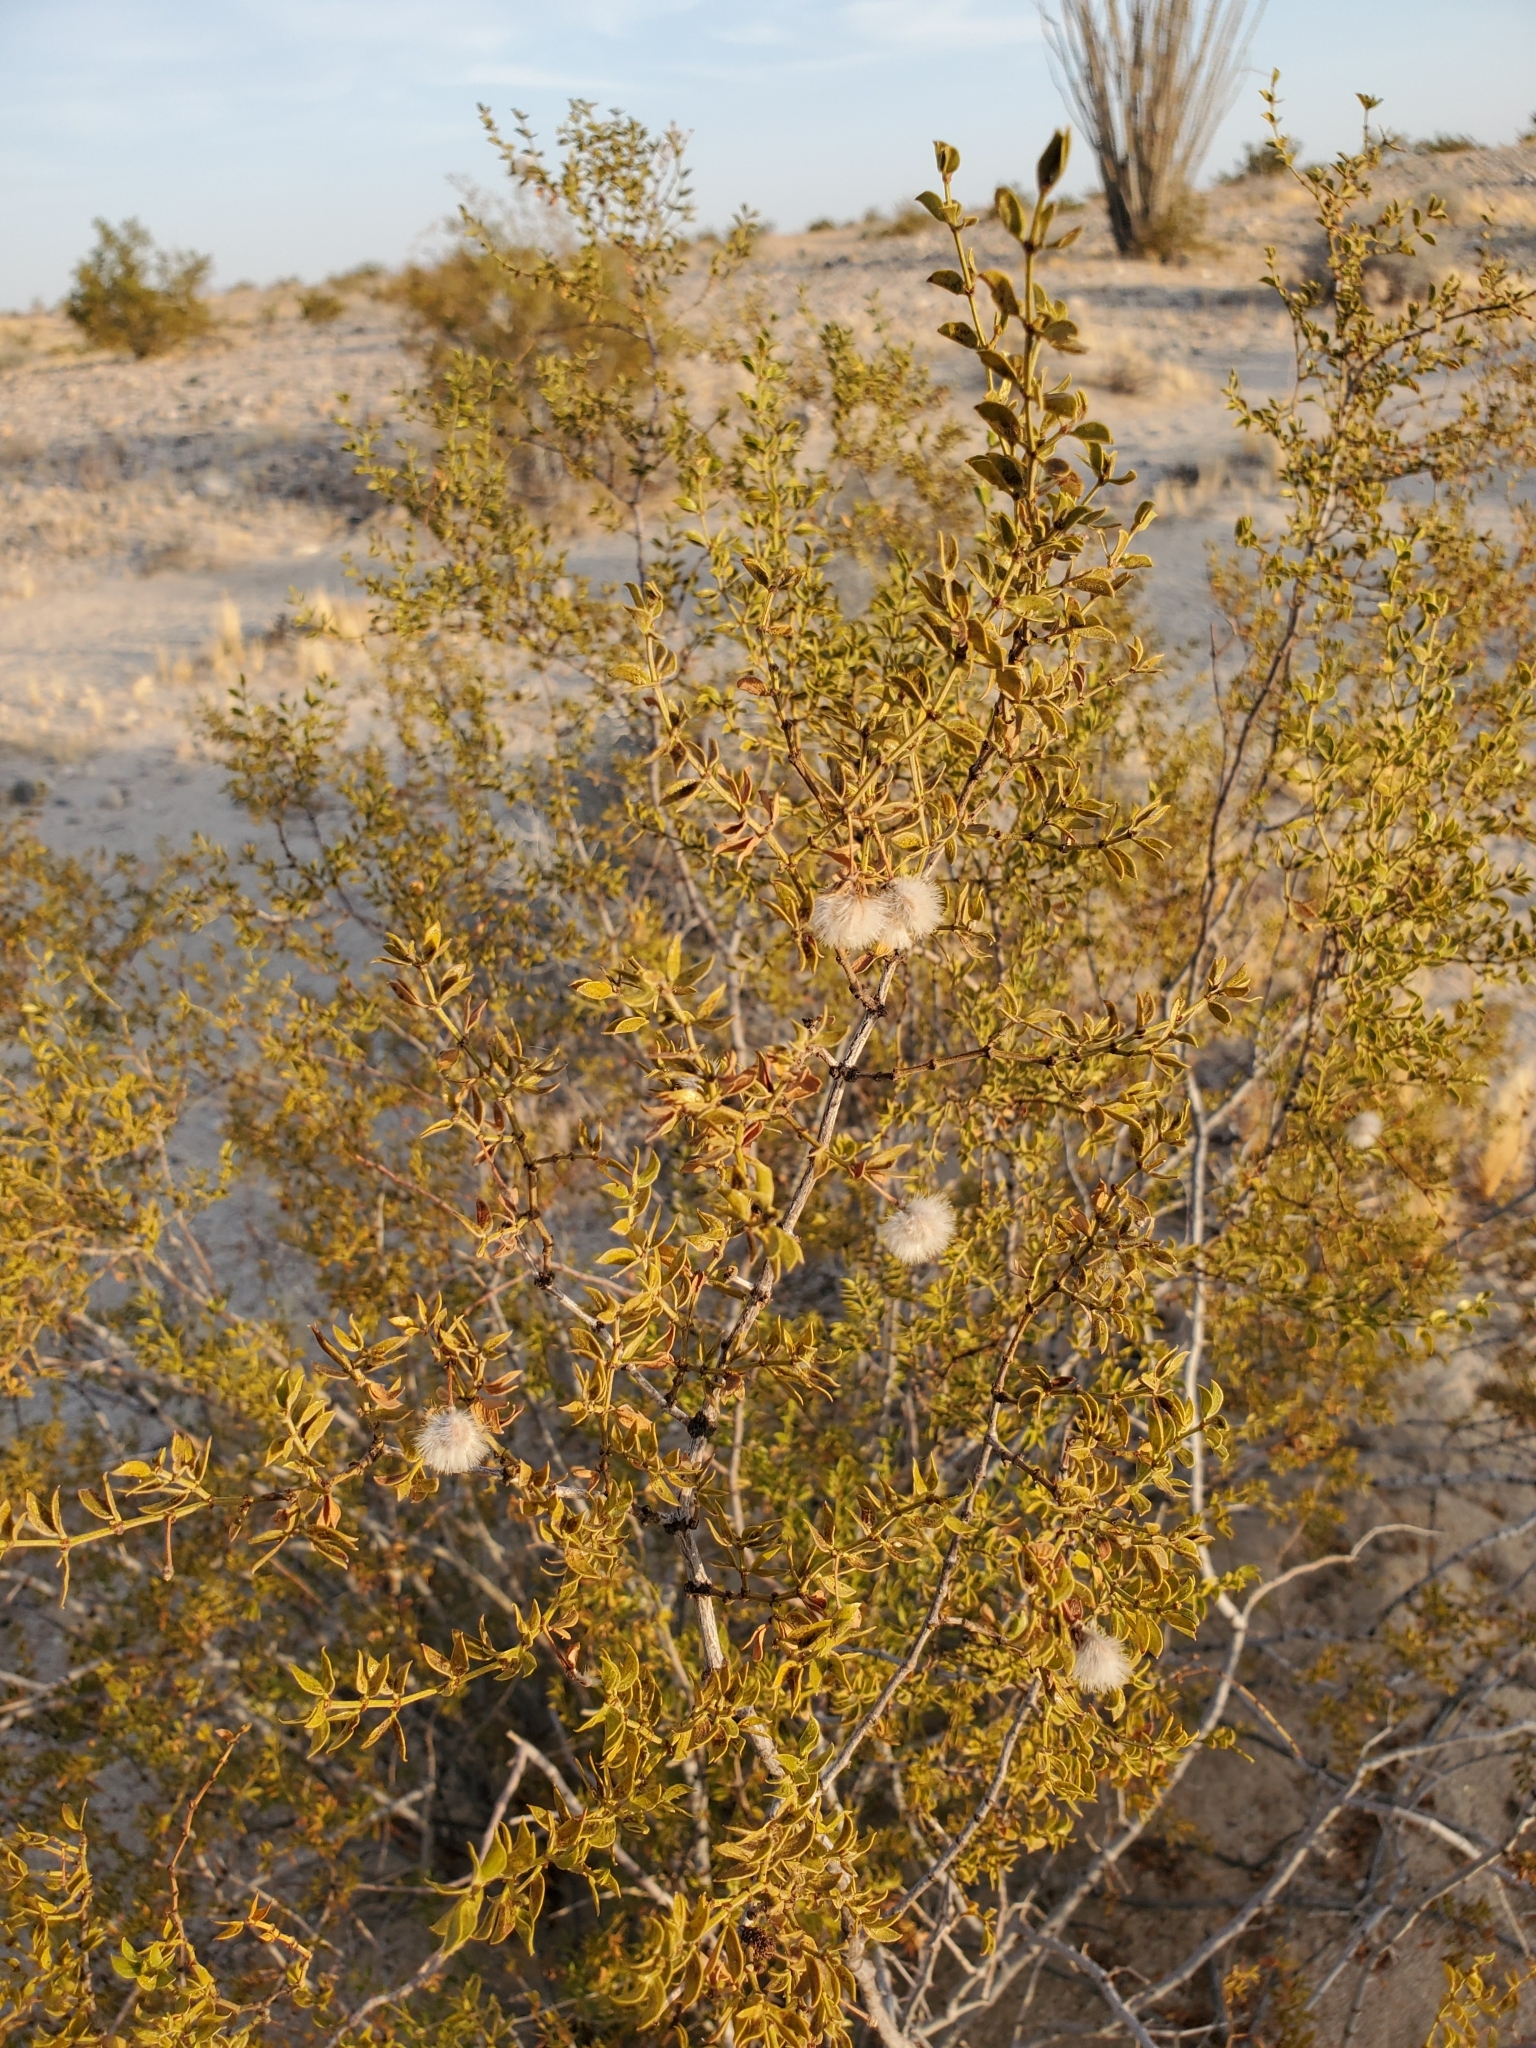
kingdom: Plantae
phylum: Tracheophyta
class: Magnoliopsida
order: Zygophyllales
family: Zygophyllaceae
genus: Larrea
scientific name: Larrea tridentata
